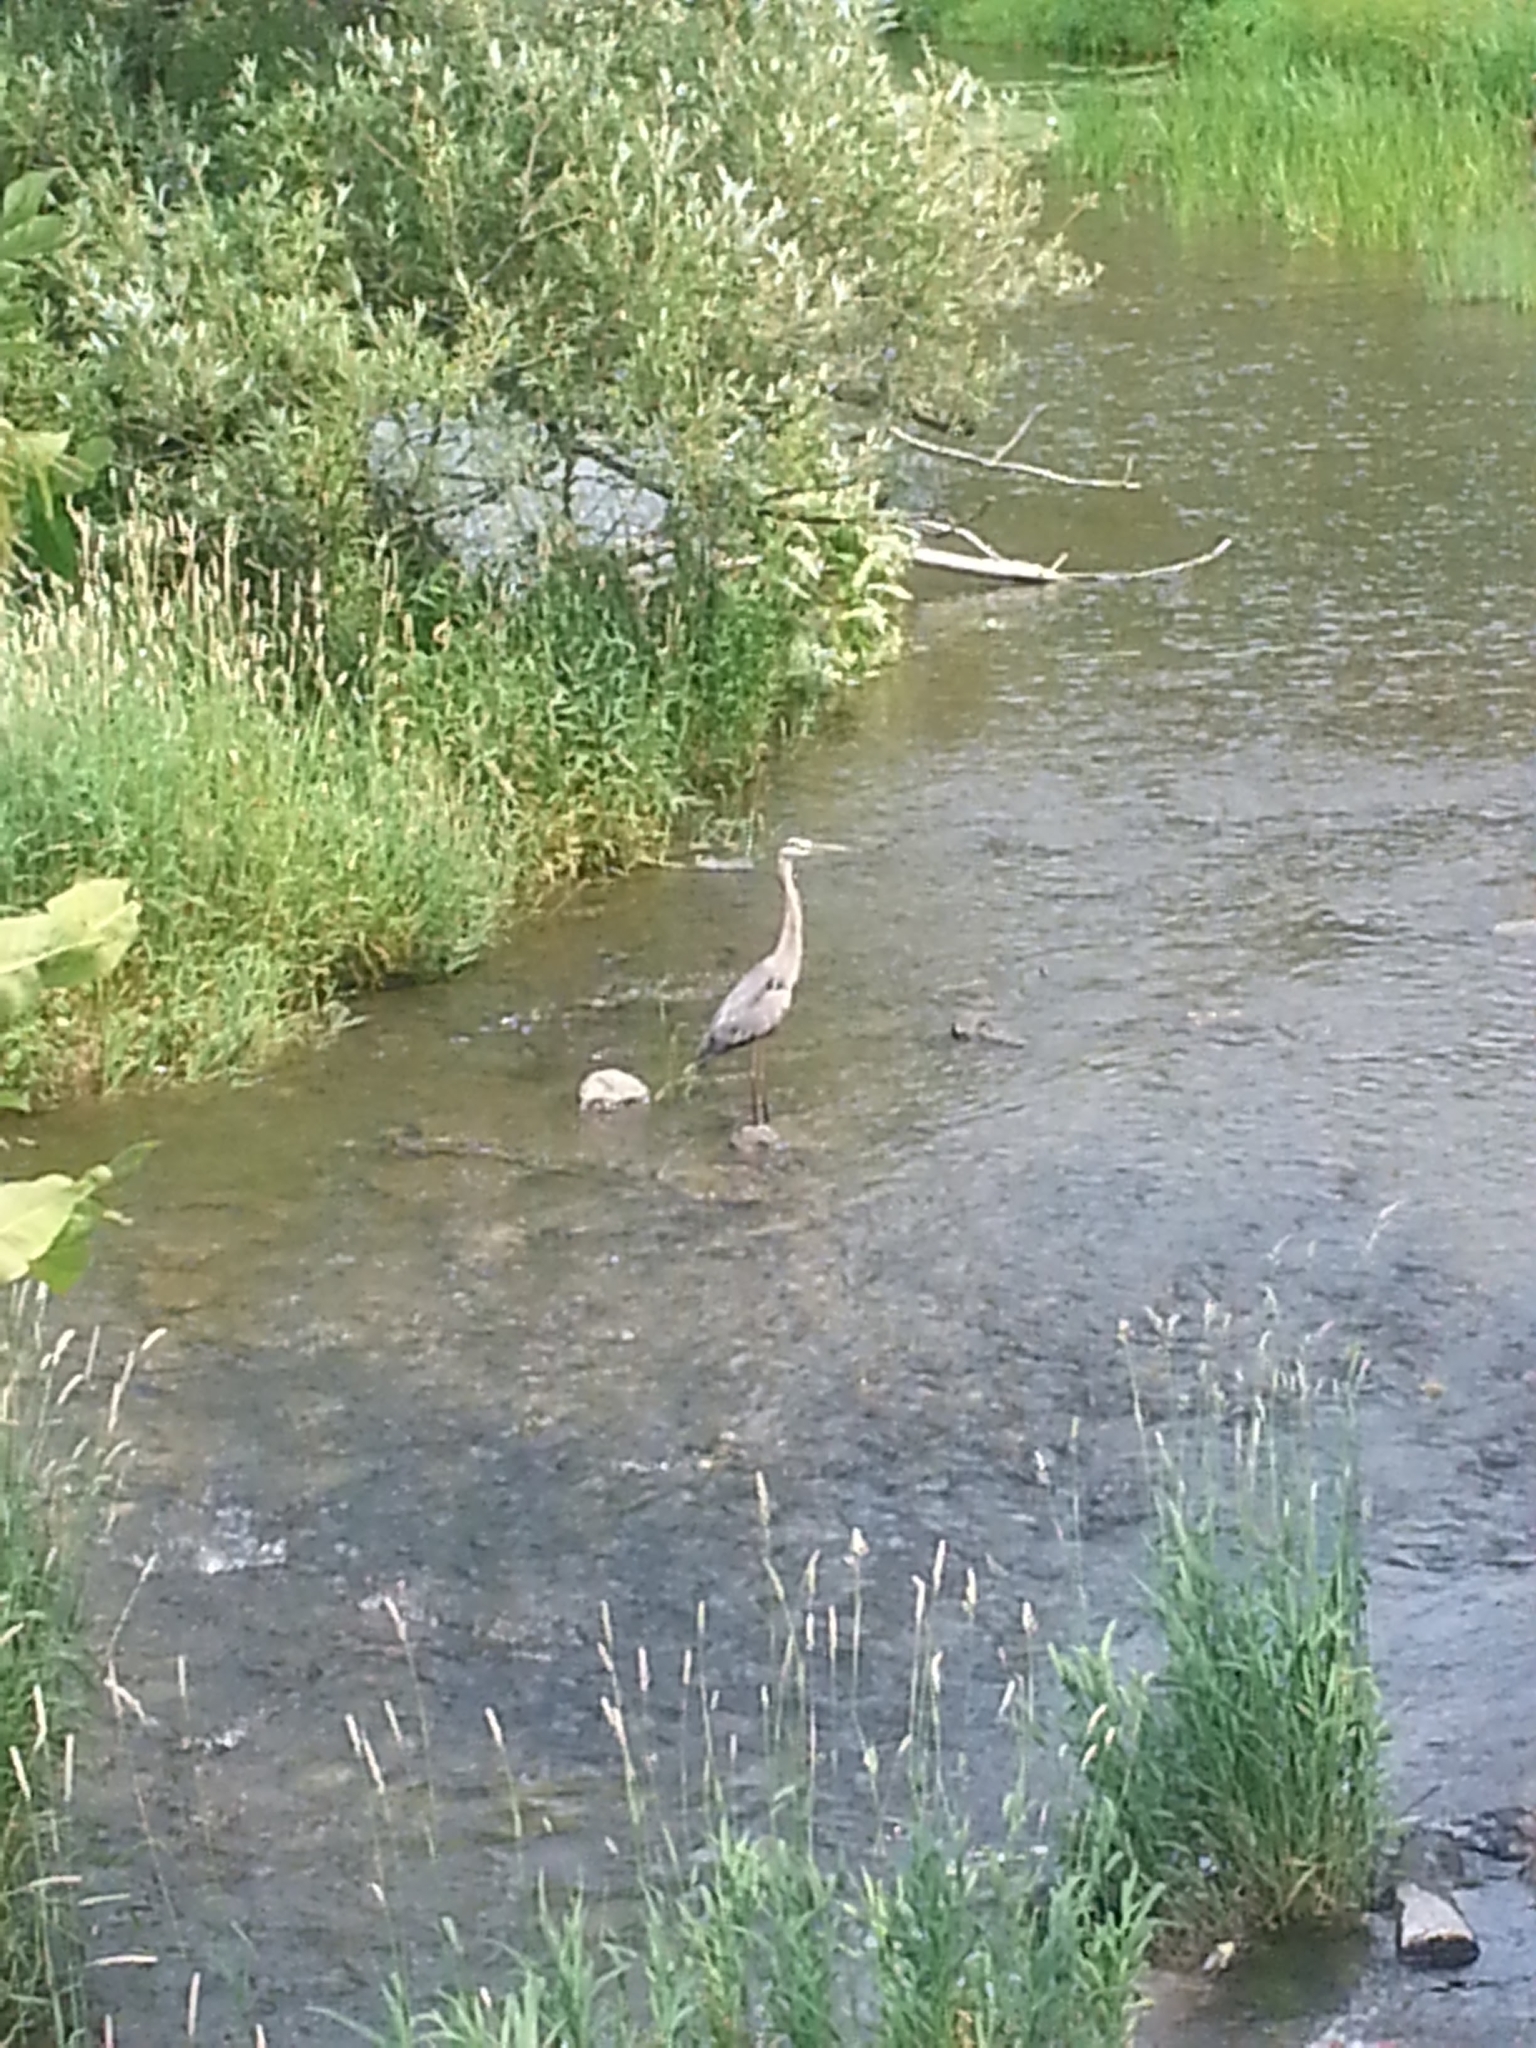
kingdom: Animalia
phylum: Chordata
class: Aves
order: Pelecaniformes
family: Ardeidae
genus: Ardea
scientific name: Ardea herodias
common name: Great blue heron
